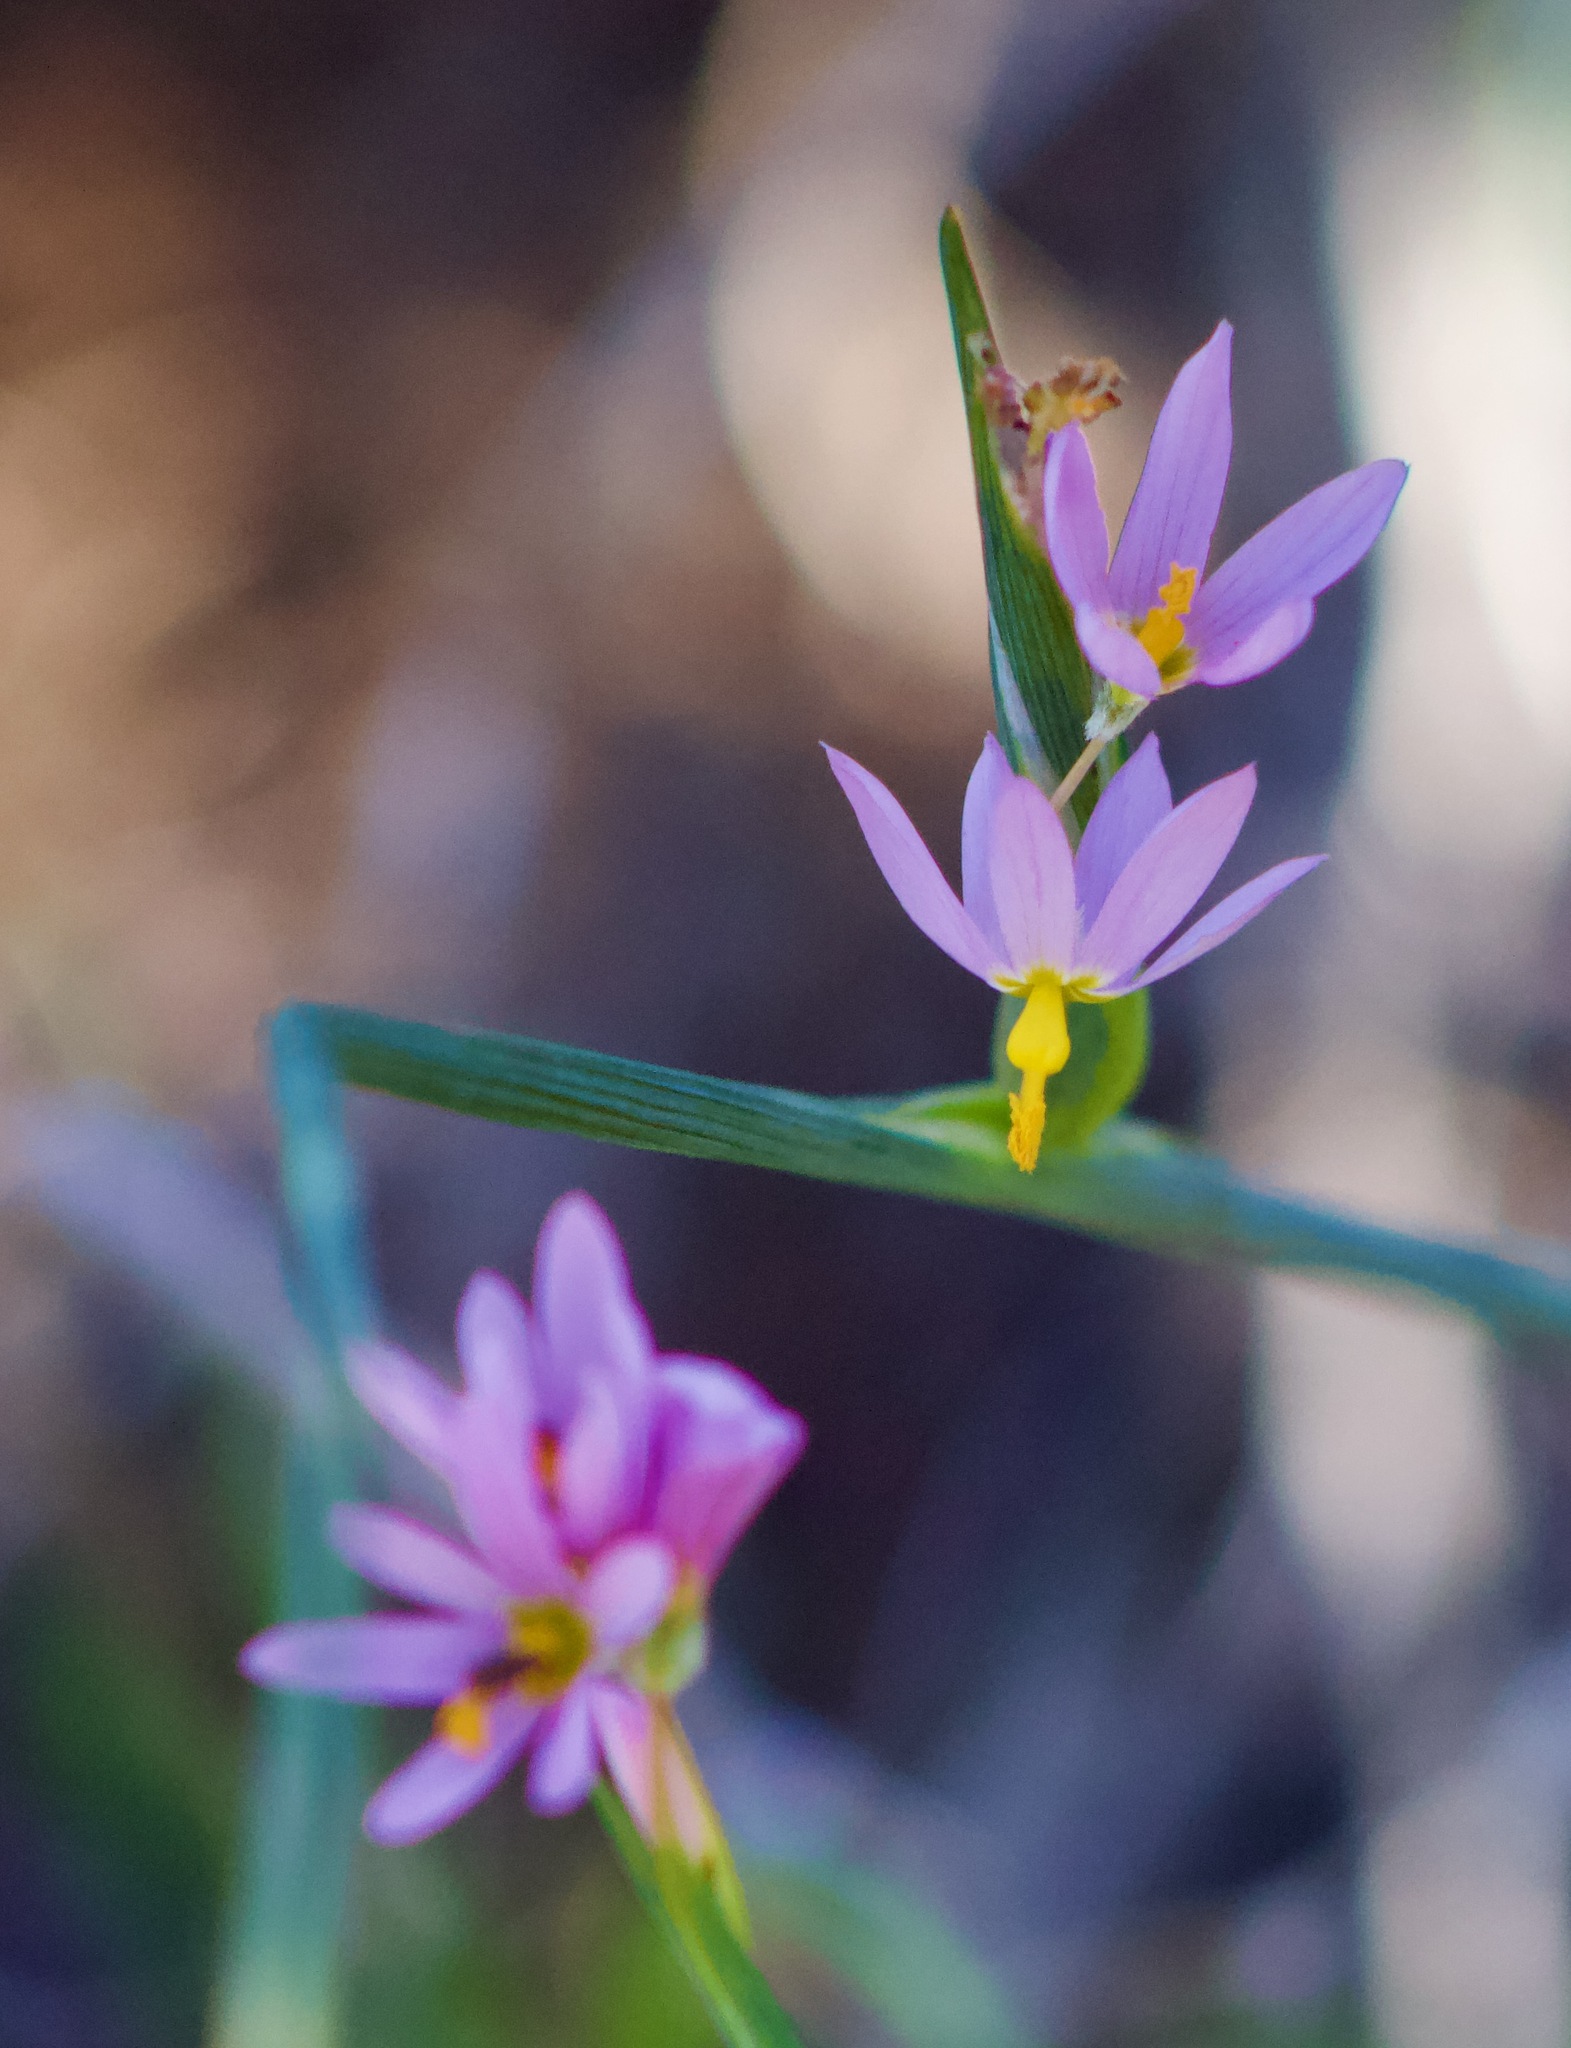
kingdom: Plantae
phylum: Tracheophyta
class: Liliopsida
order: Asparagales
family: Iridaceae
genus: Olsynium
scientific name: Olsynium scirpoideum
